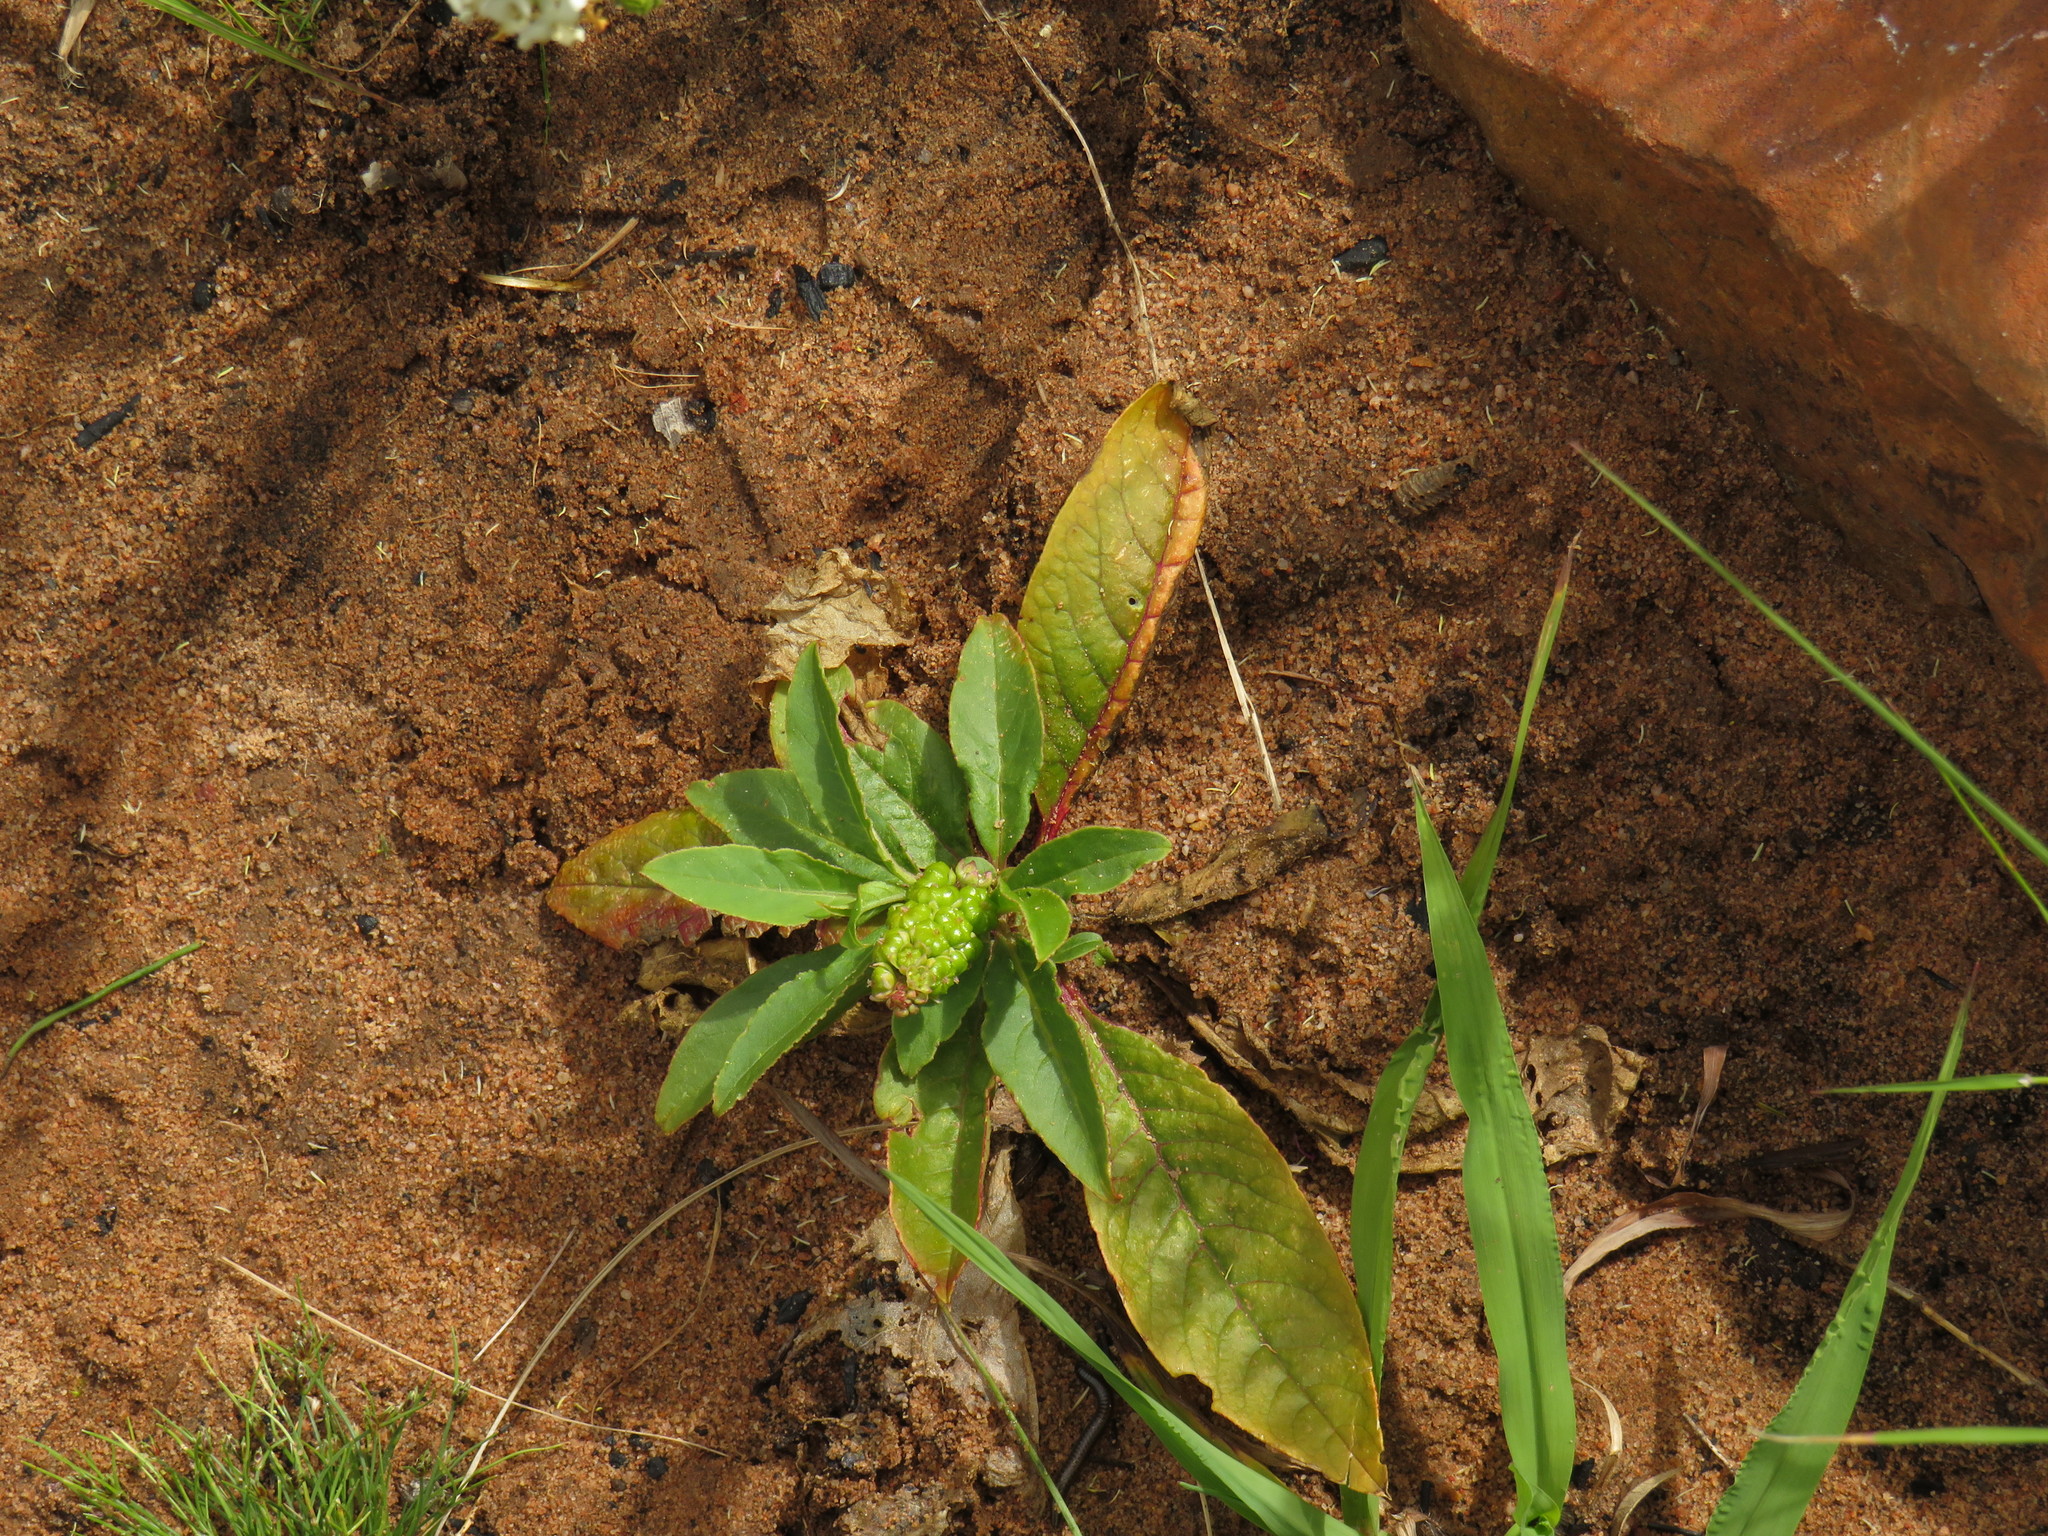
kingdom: Plantae
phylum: Tracheophyta
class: Magnoliopsida
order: Caryophyllales
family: Phytolaccaceae
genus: Phytolacca
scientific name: Phytolacca icosandra
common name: Button pokeweed
